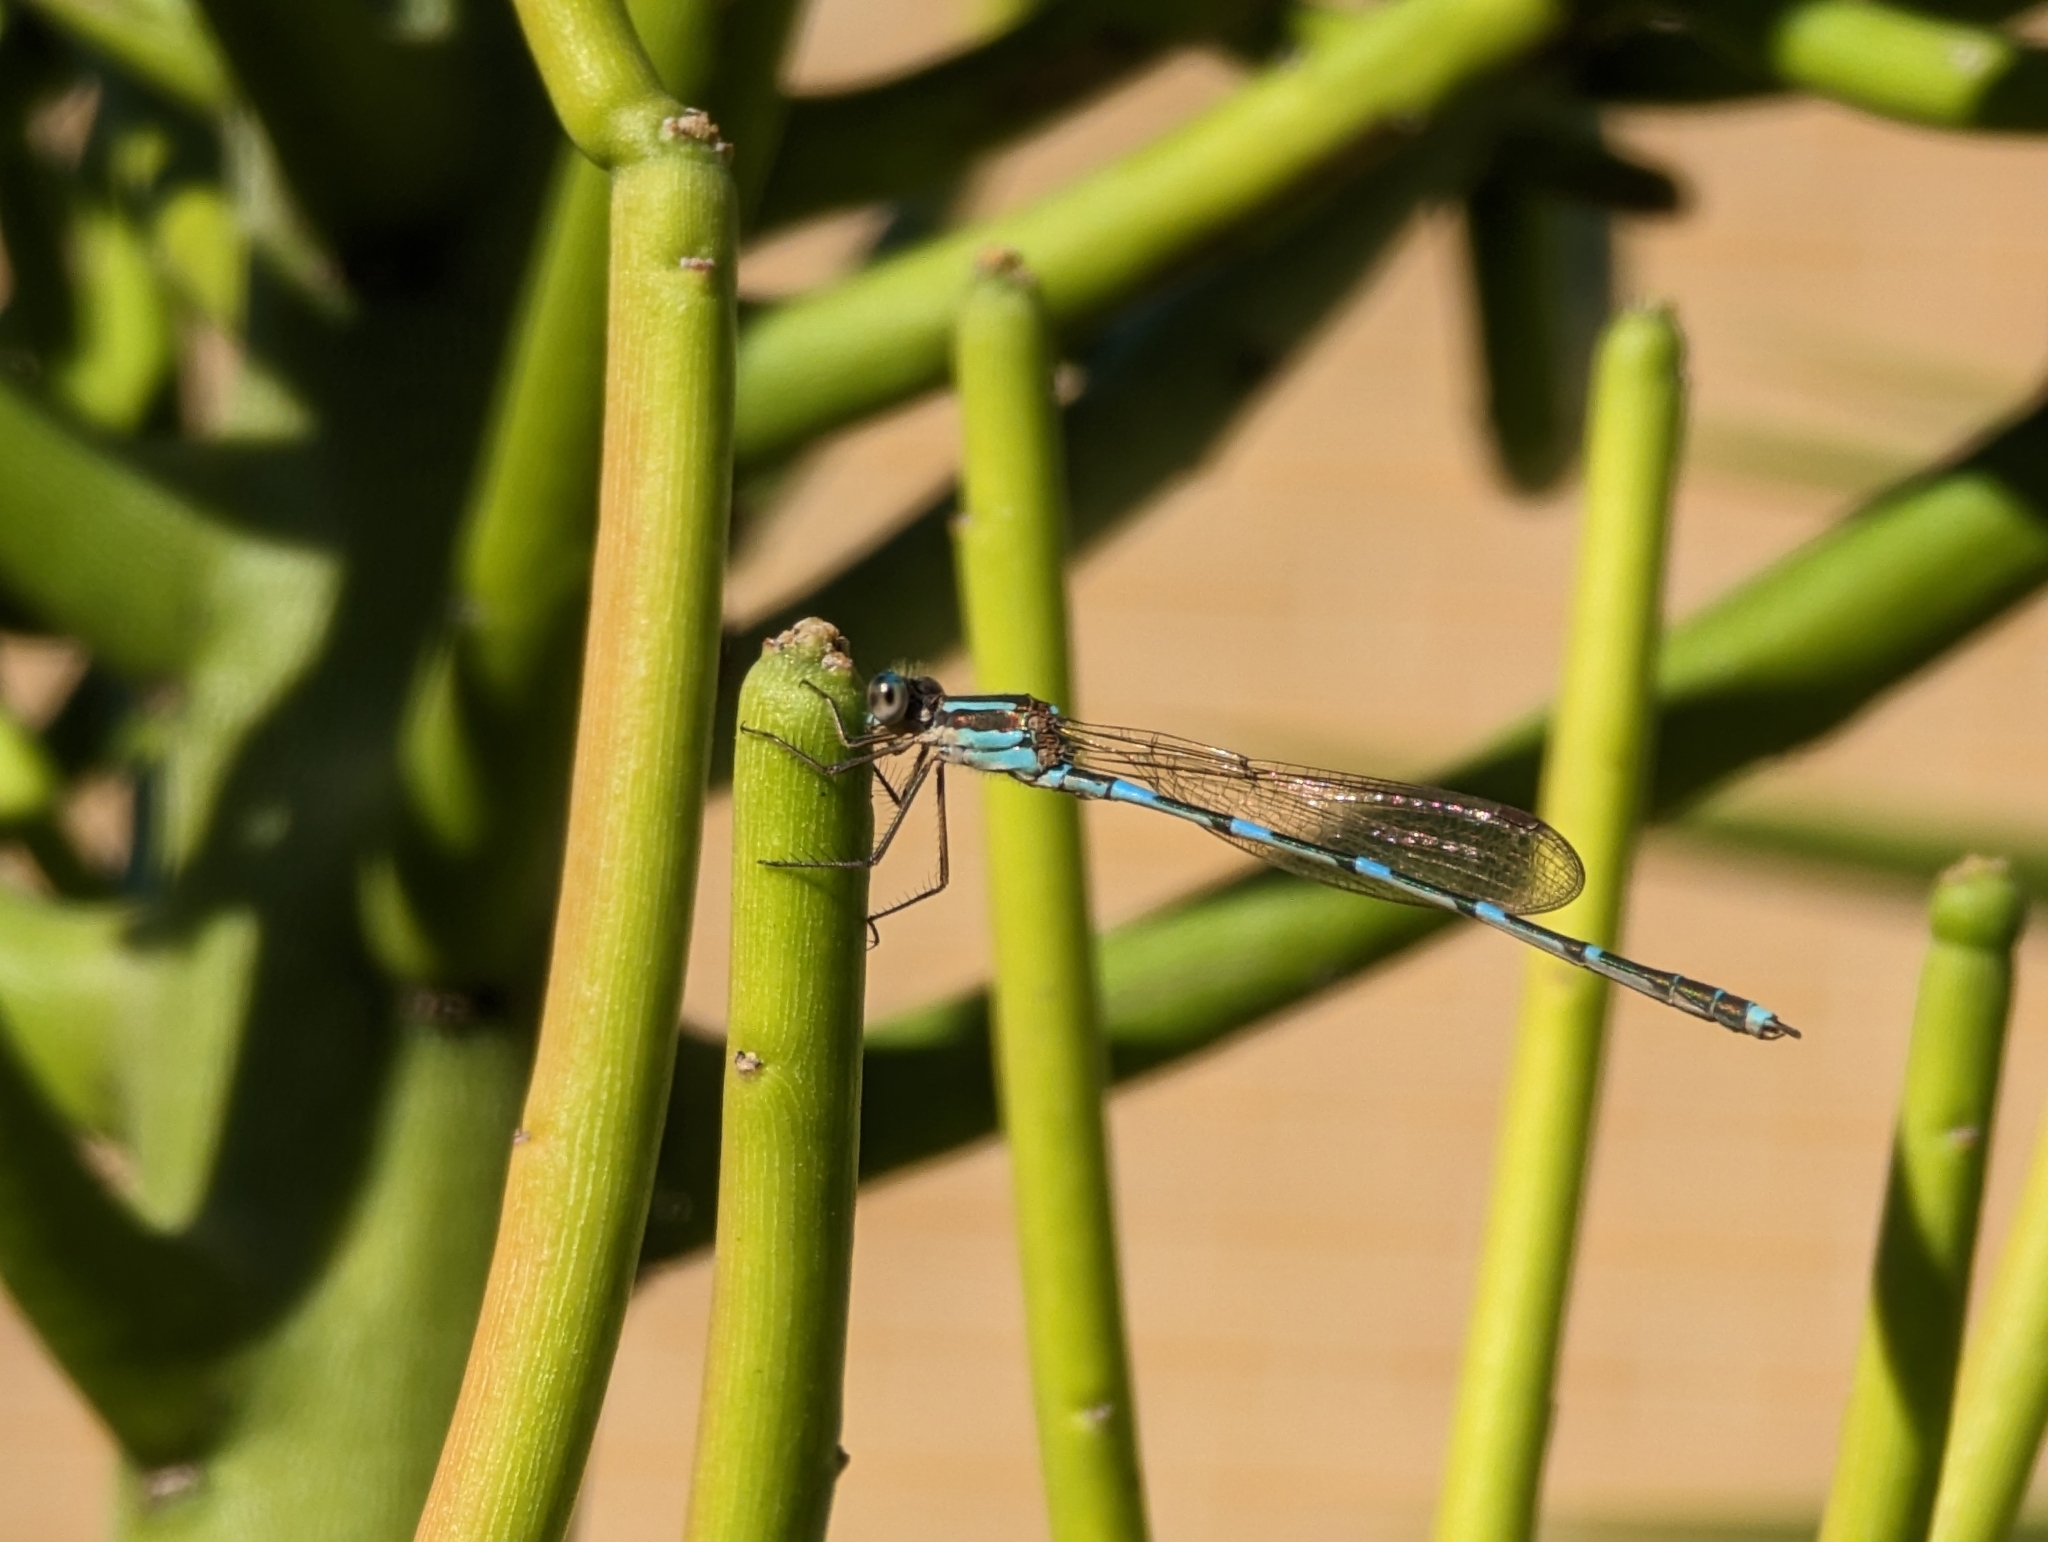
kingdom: Animalia
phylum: Arthropoda
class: Insecta
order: Odonata
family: Lestidae
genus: Austrolestes
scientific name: Austrolestes leda
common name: Wandering ringtail
